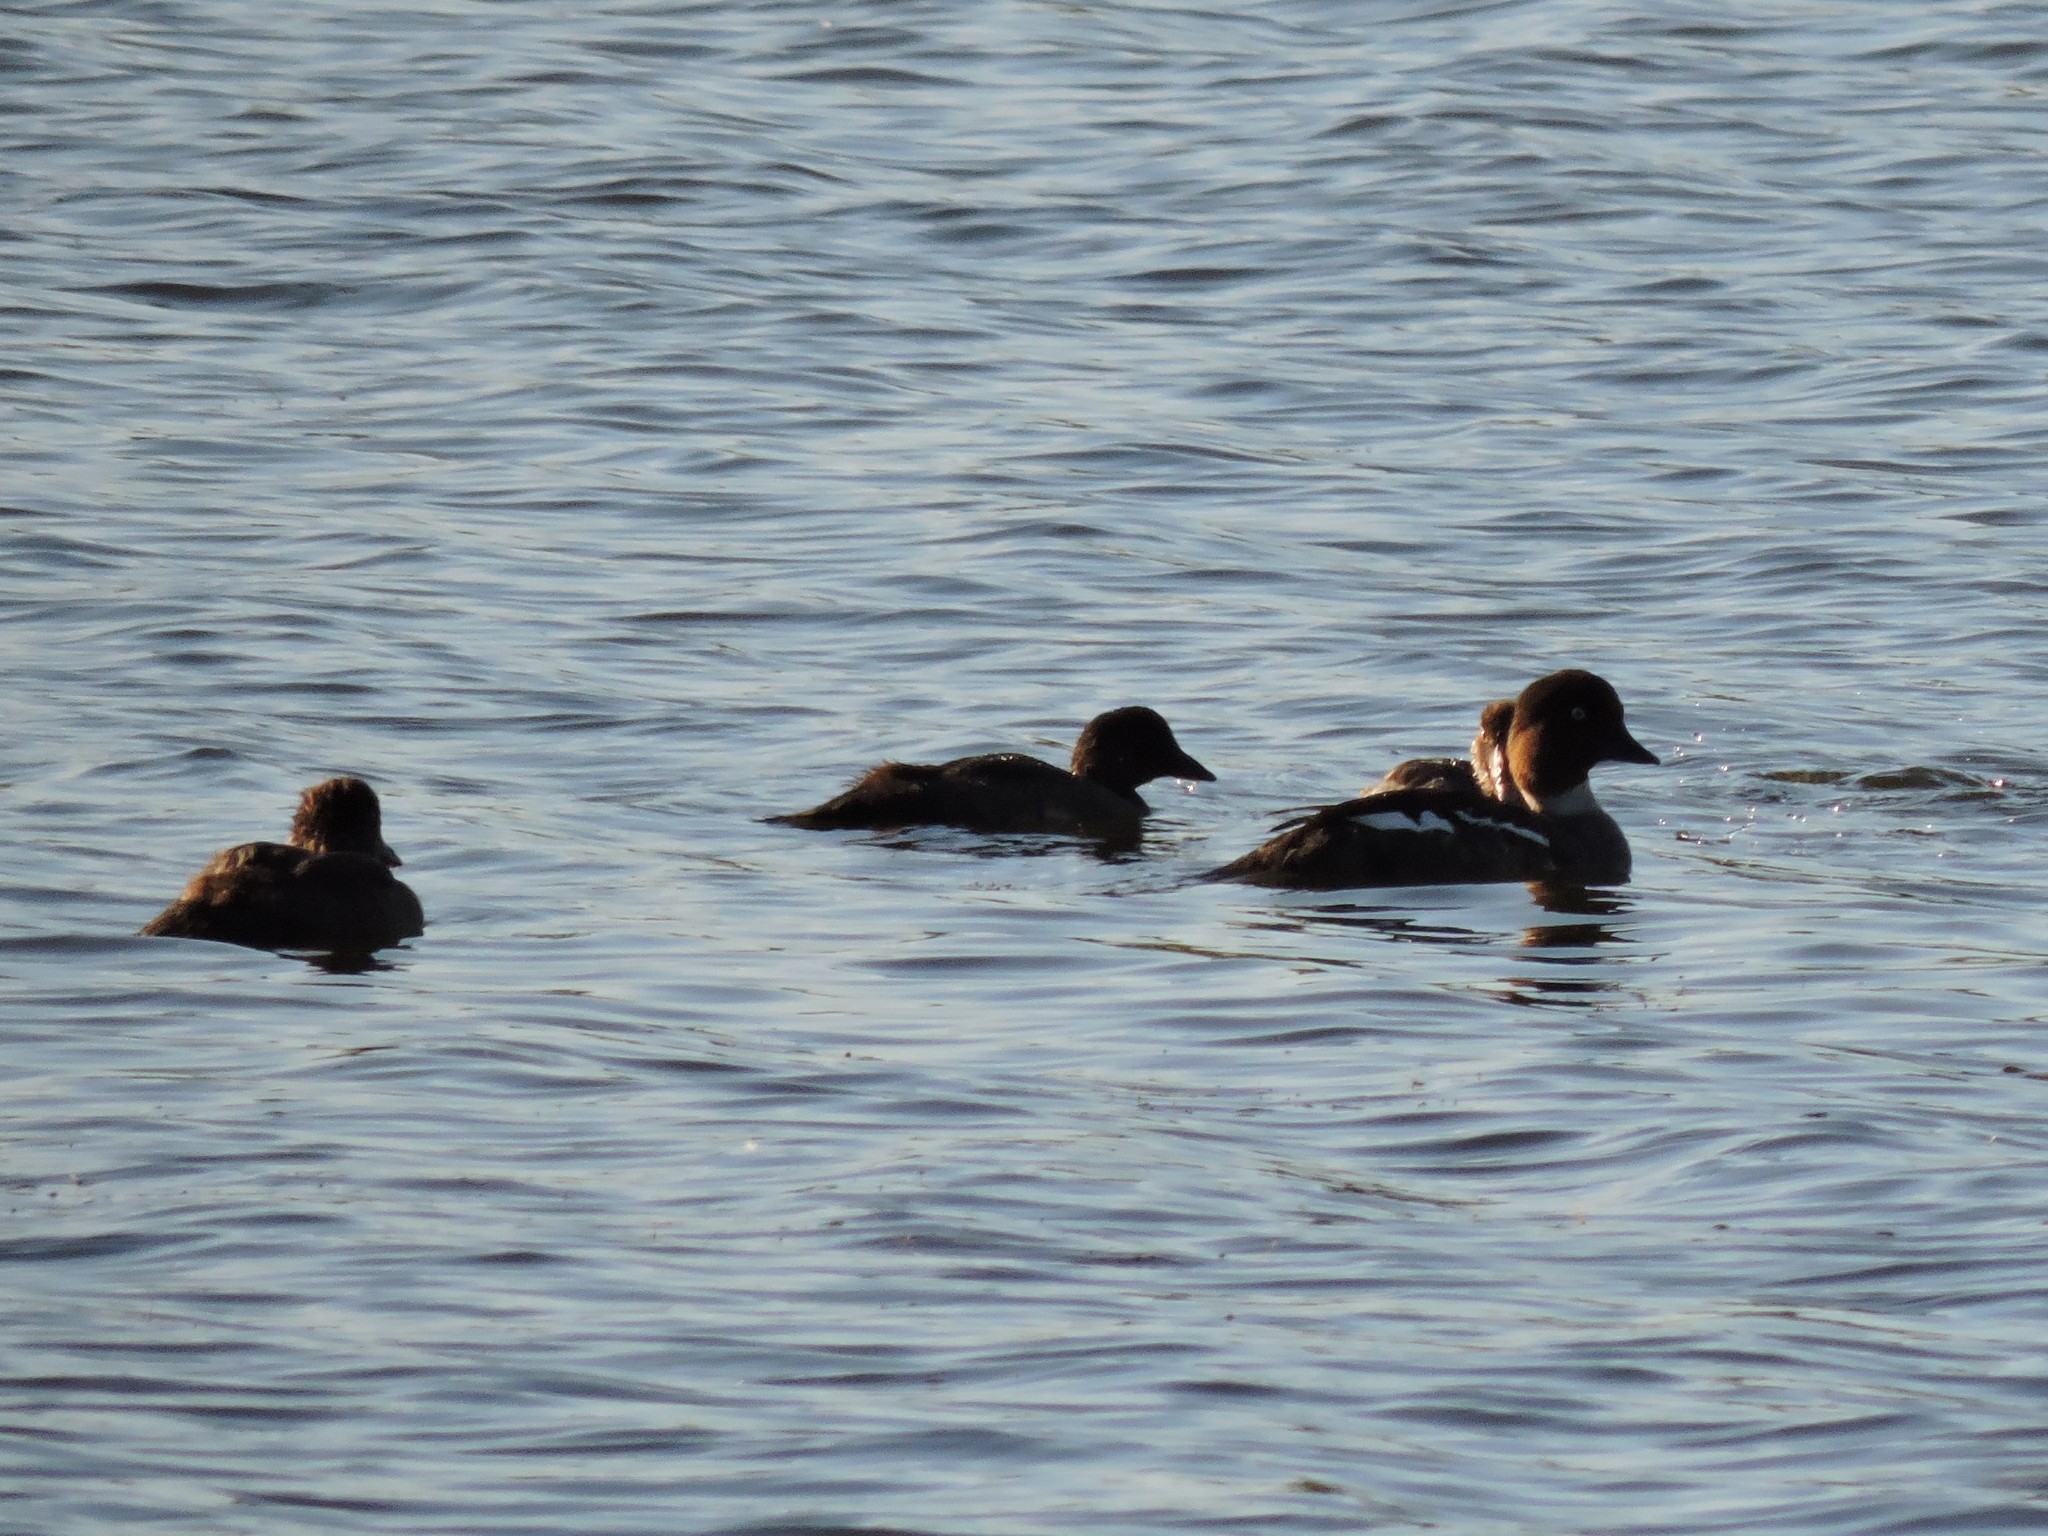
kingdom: Animalia
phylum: Chordata
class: Aves
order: Anseriformes
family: Anatidae
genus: Bucephala
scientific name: Bucephala clangula
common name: Common goldeneye
